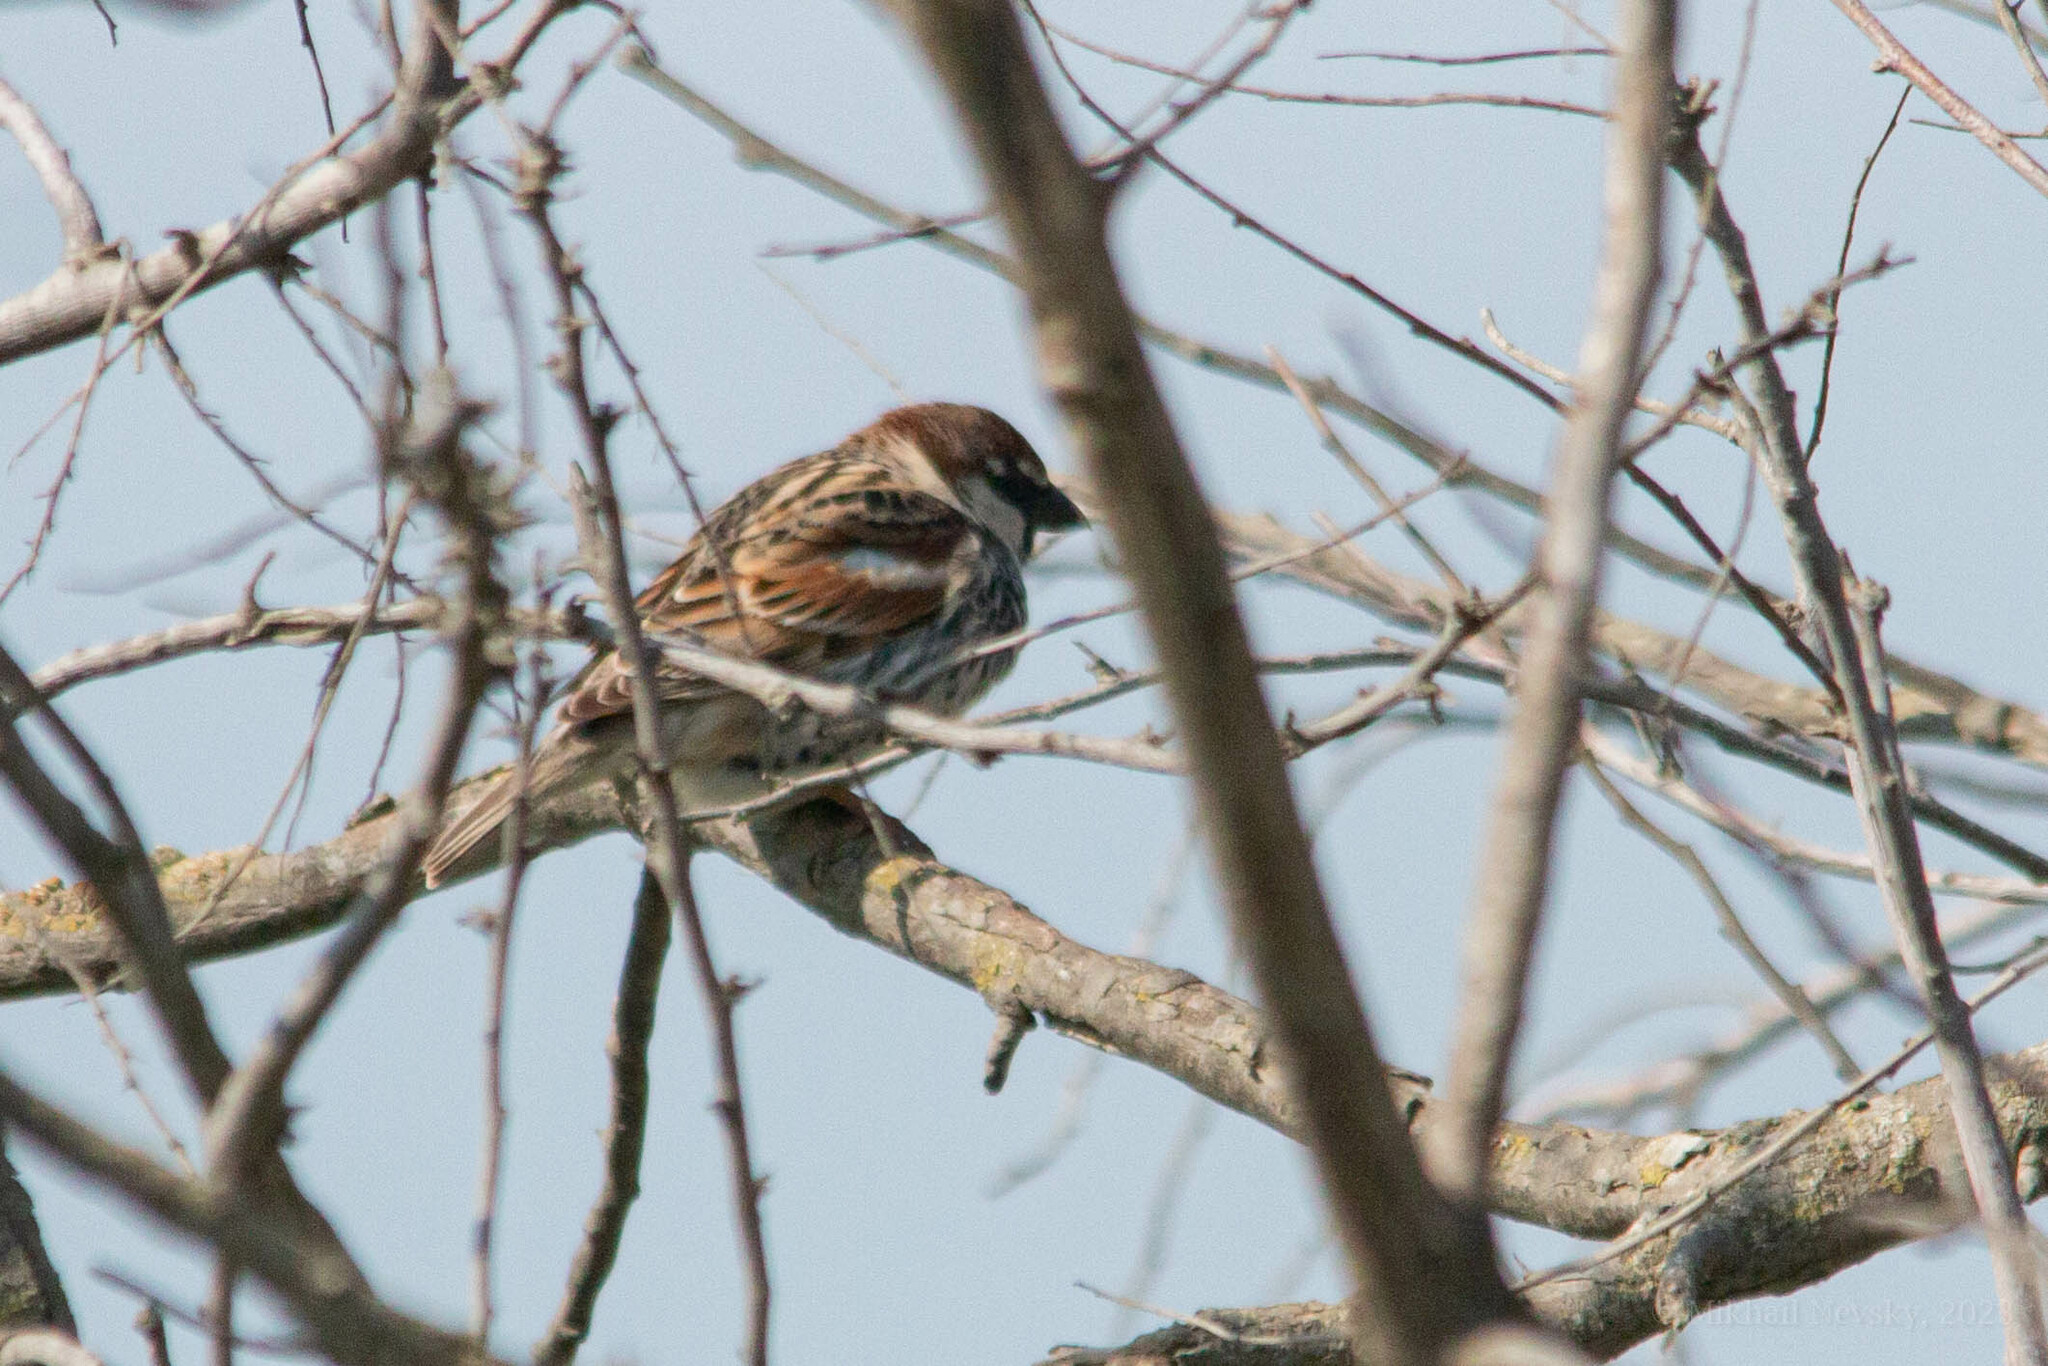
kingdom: Animalia
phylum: Chordata
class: Aves
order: Passeriformes
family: Passeridae
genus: Passer
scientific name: Passer hispaniolensis
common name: Spanish sparrow
